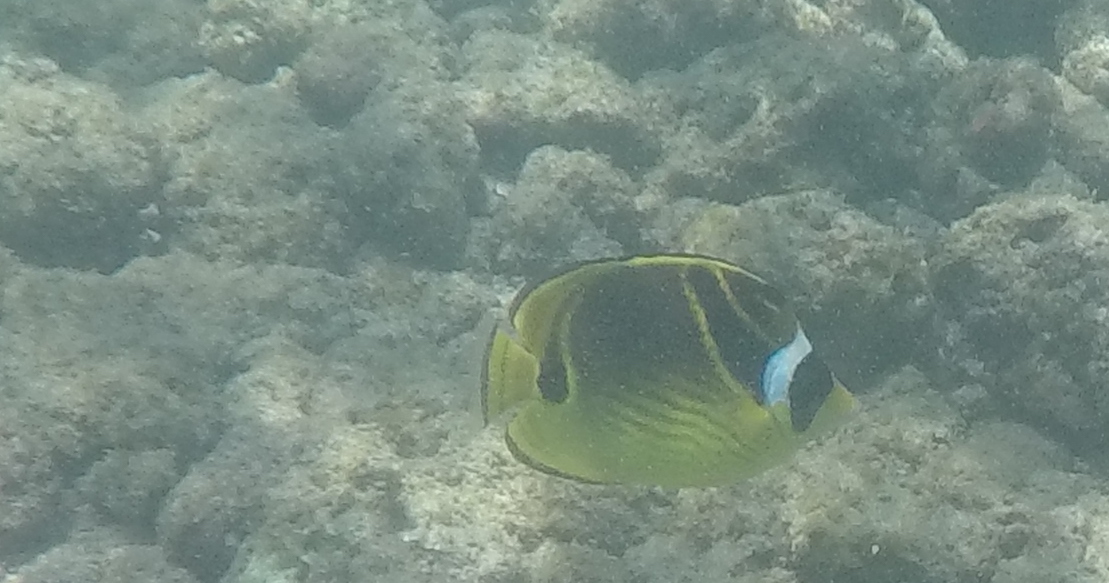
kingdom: Animalia
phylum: Chordata
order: Perciformes
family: Chaetodontidae
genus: Chaetodon
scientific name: Chaetodon lunula
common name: Raccoon butterflyfish
